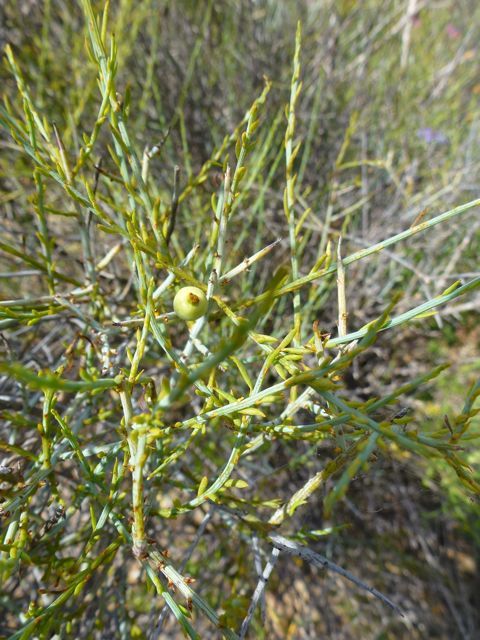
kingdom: Plantae
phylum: Tracheophyta
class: Magnoliopsida
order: Santalales
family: Thesiaceae
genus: Lacomucinaea
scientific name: Lacomucinaea lineata
